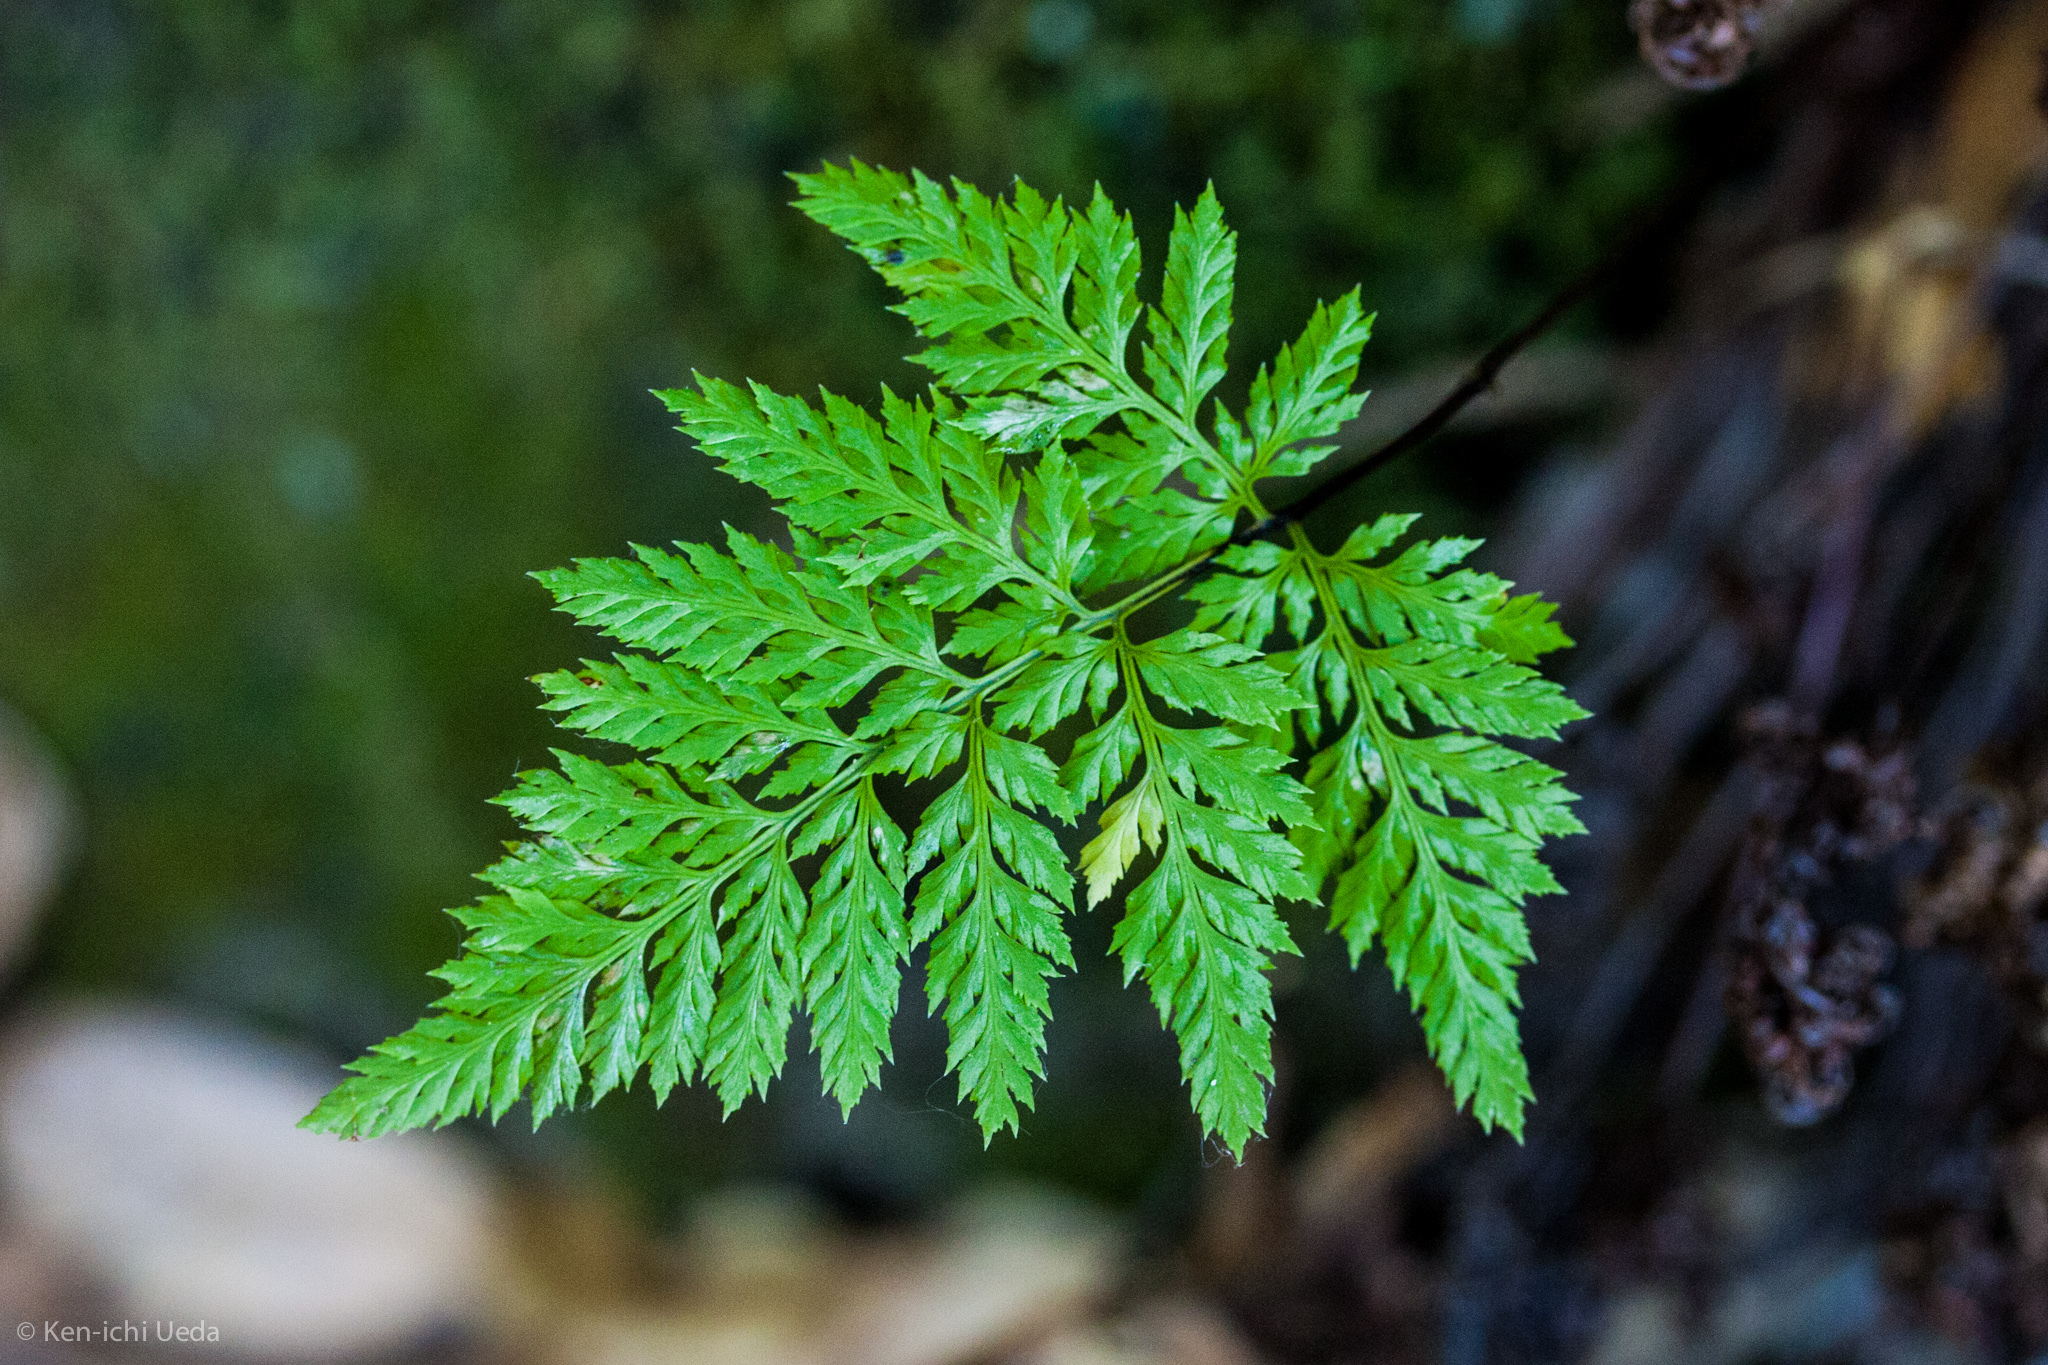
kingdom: Plantae
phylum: Tracheophyta
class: Polypodiopsida
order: Polypodiales
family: Pteridaceae
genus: Aspidotis
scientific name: Aspidotis californica
